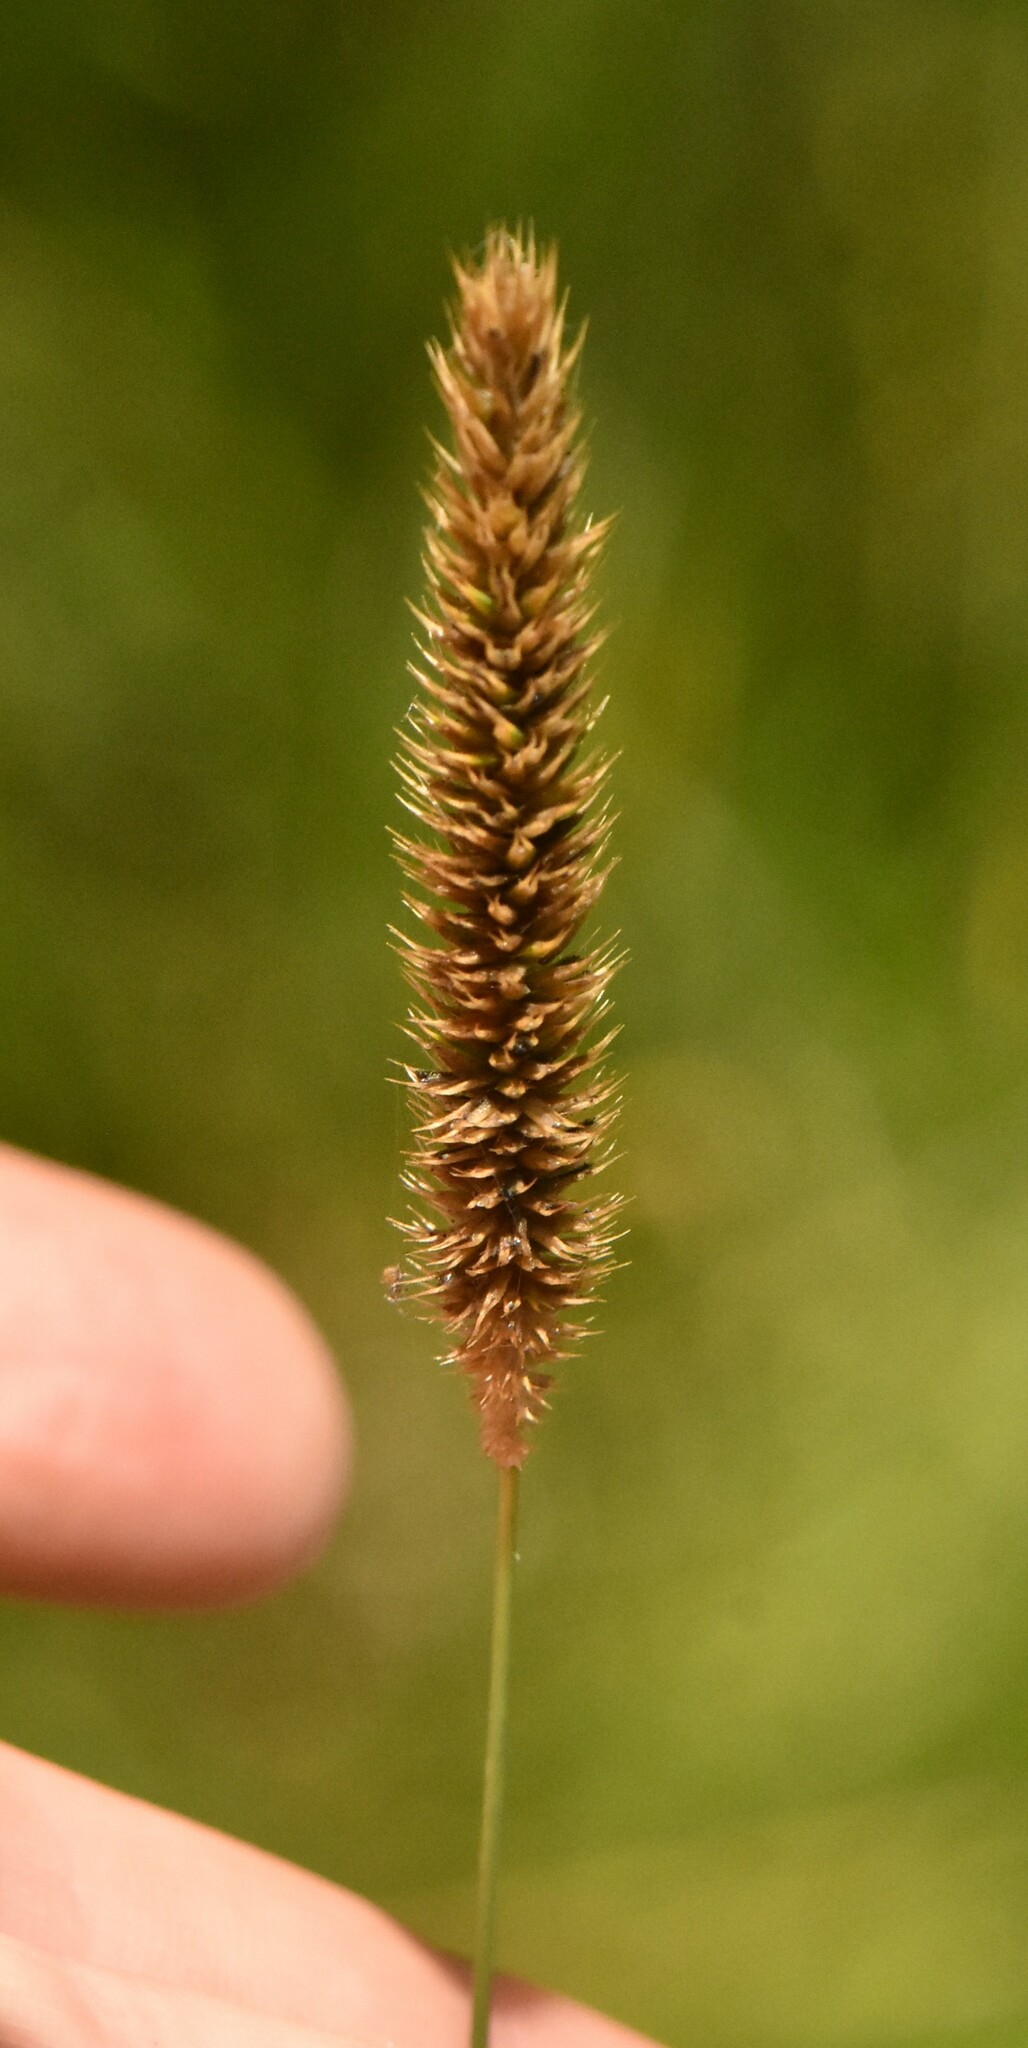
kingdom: Plantae
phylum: Tracheophyta
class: Liliopsida
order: Poales
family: Poaceae
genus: Phleum
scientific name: Phleum pratense
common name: Timothy grass
